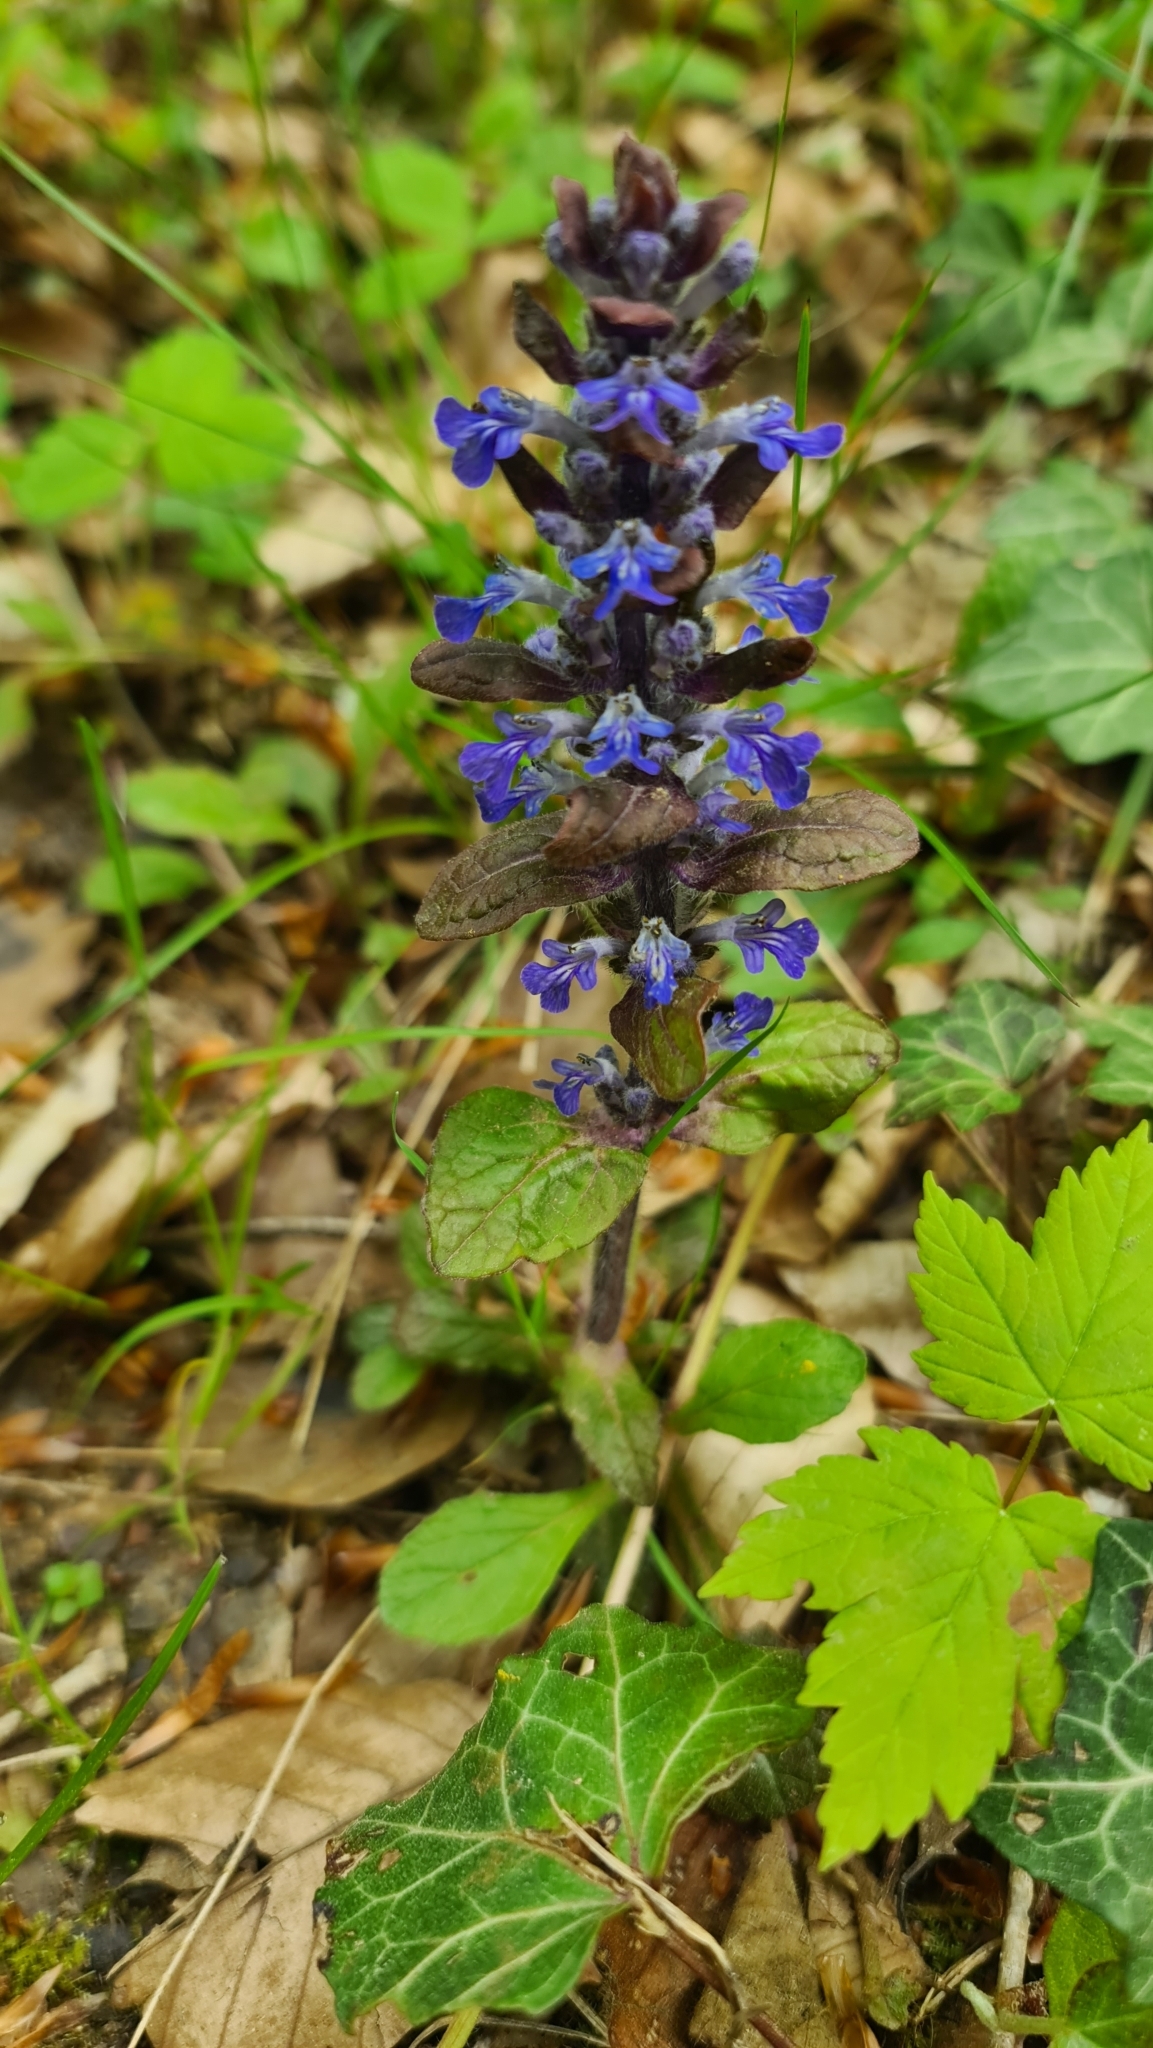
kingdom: Plantae
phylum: Tracheophyta
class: Magnoliopsida
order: Lamiales
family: Lamiaceae
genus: Ajuga
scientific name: Ajuga reptans
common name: Bugle
